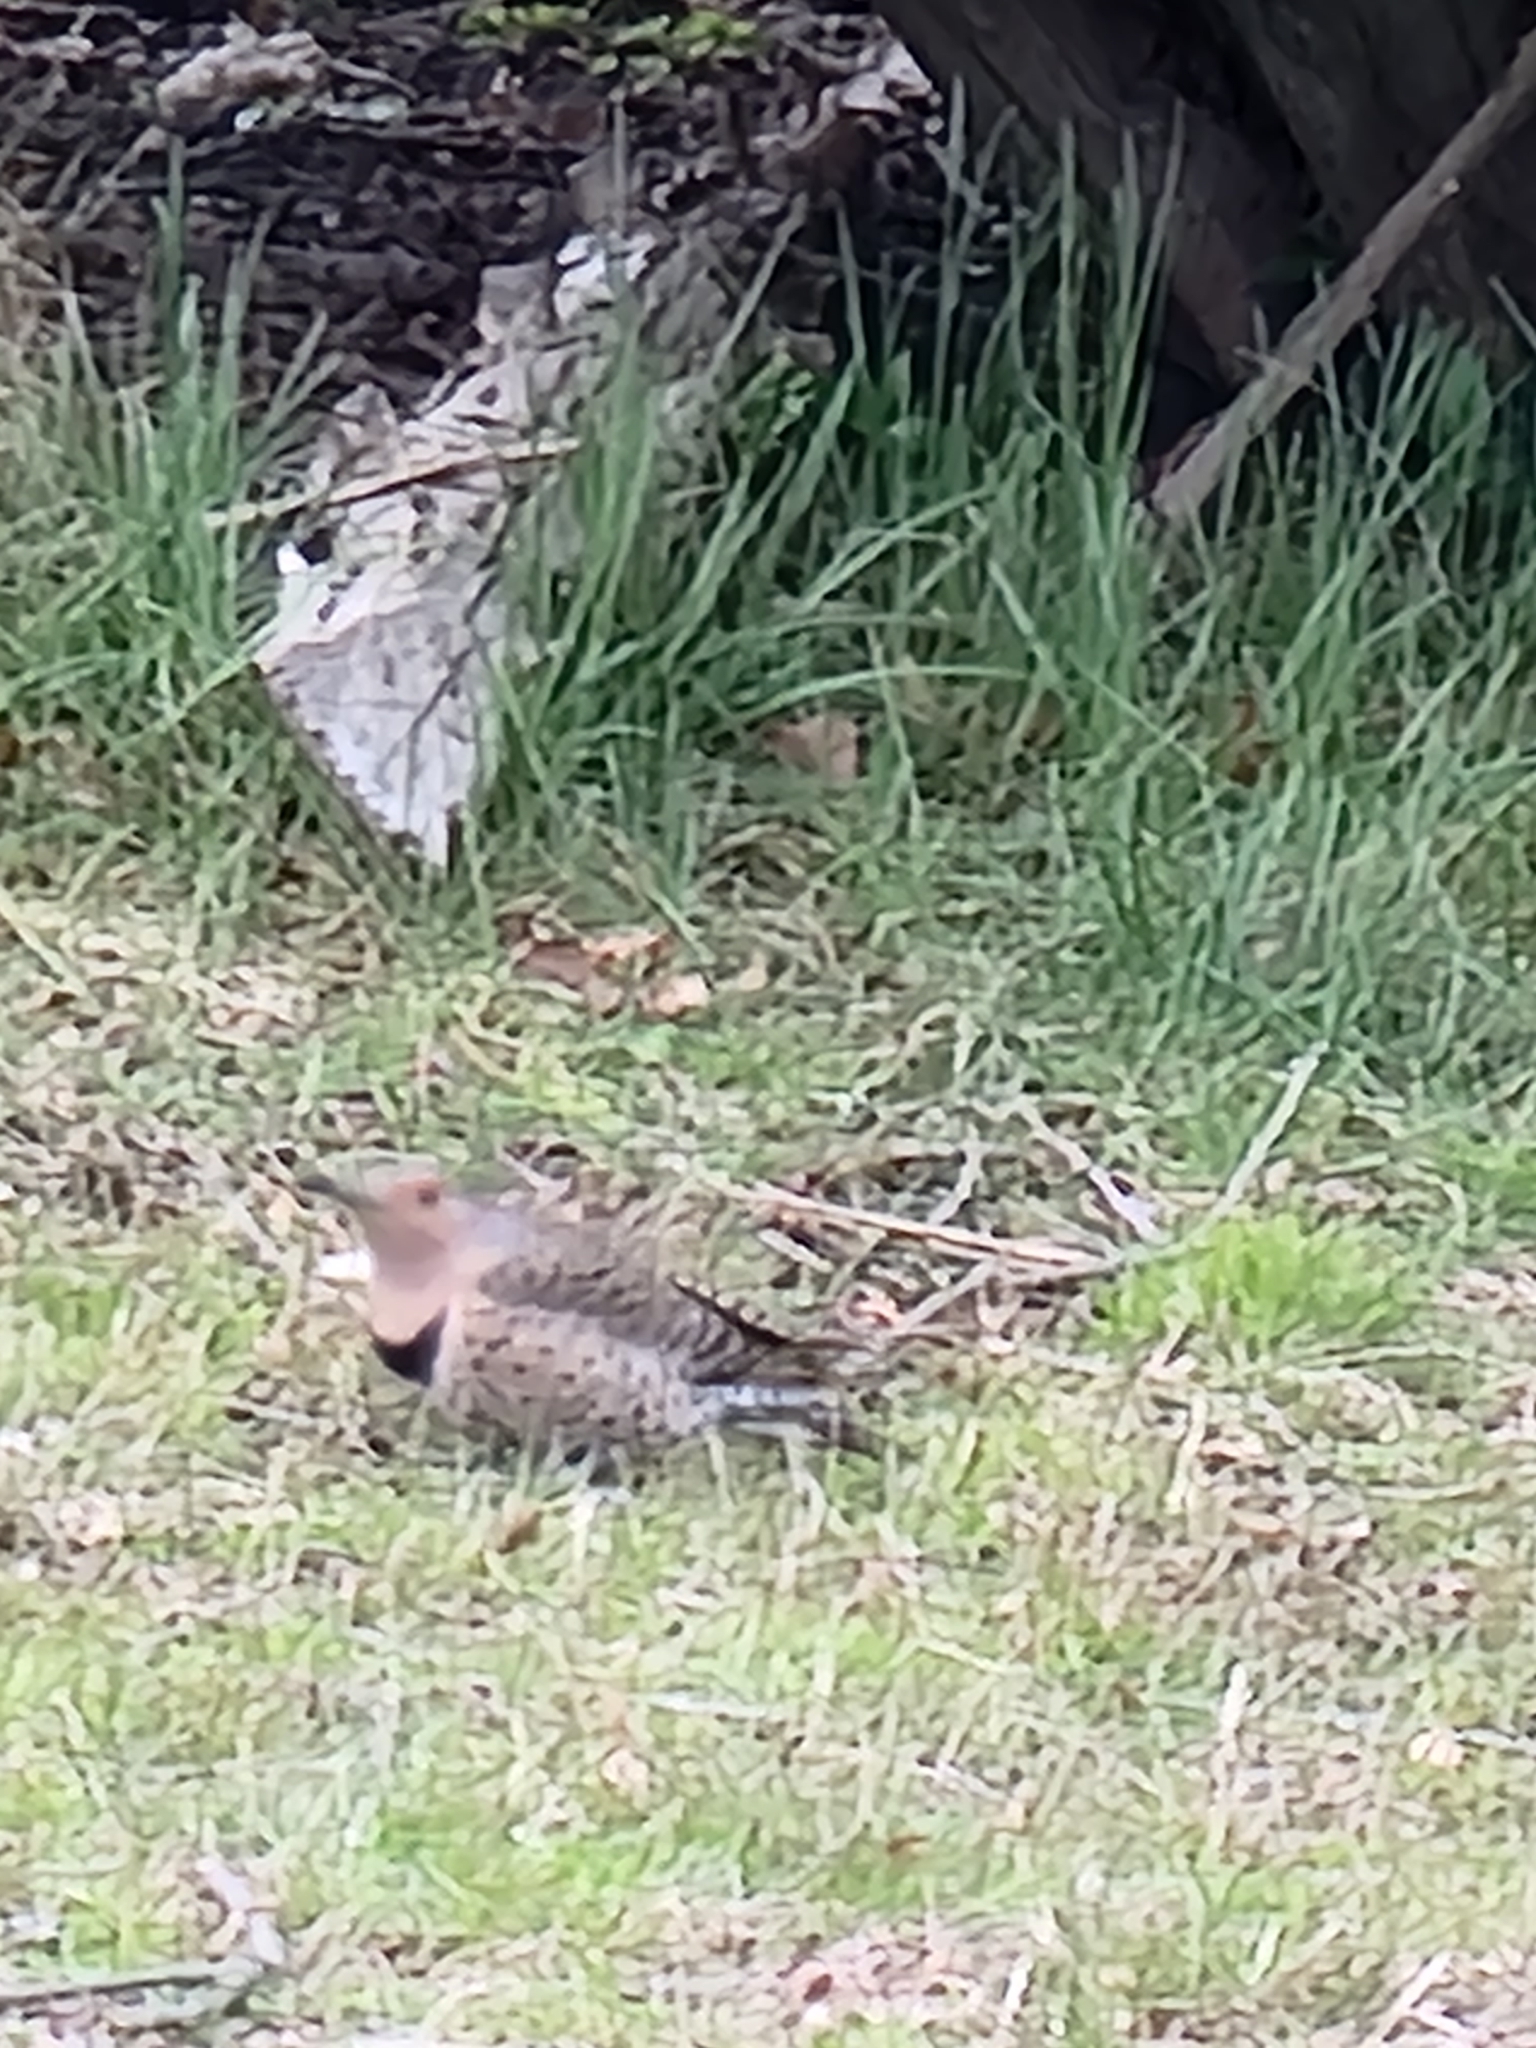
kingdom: Animalia
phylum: Chordata
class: Aves
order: Piciformes
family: Picidae
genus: Colaptes
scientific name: Colaptes auratus
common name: Northern flicker
